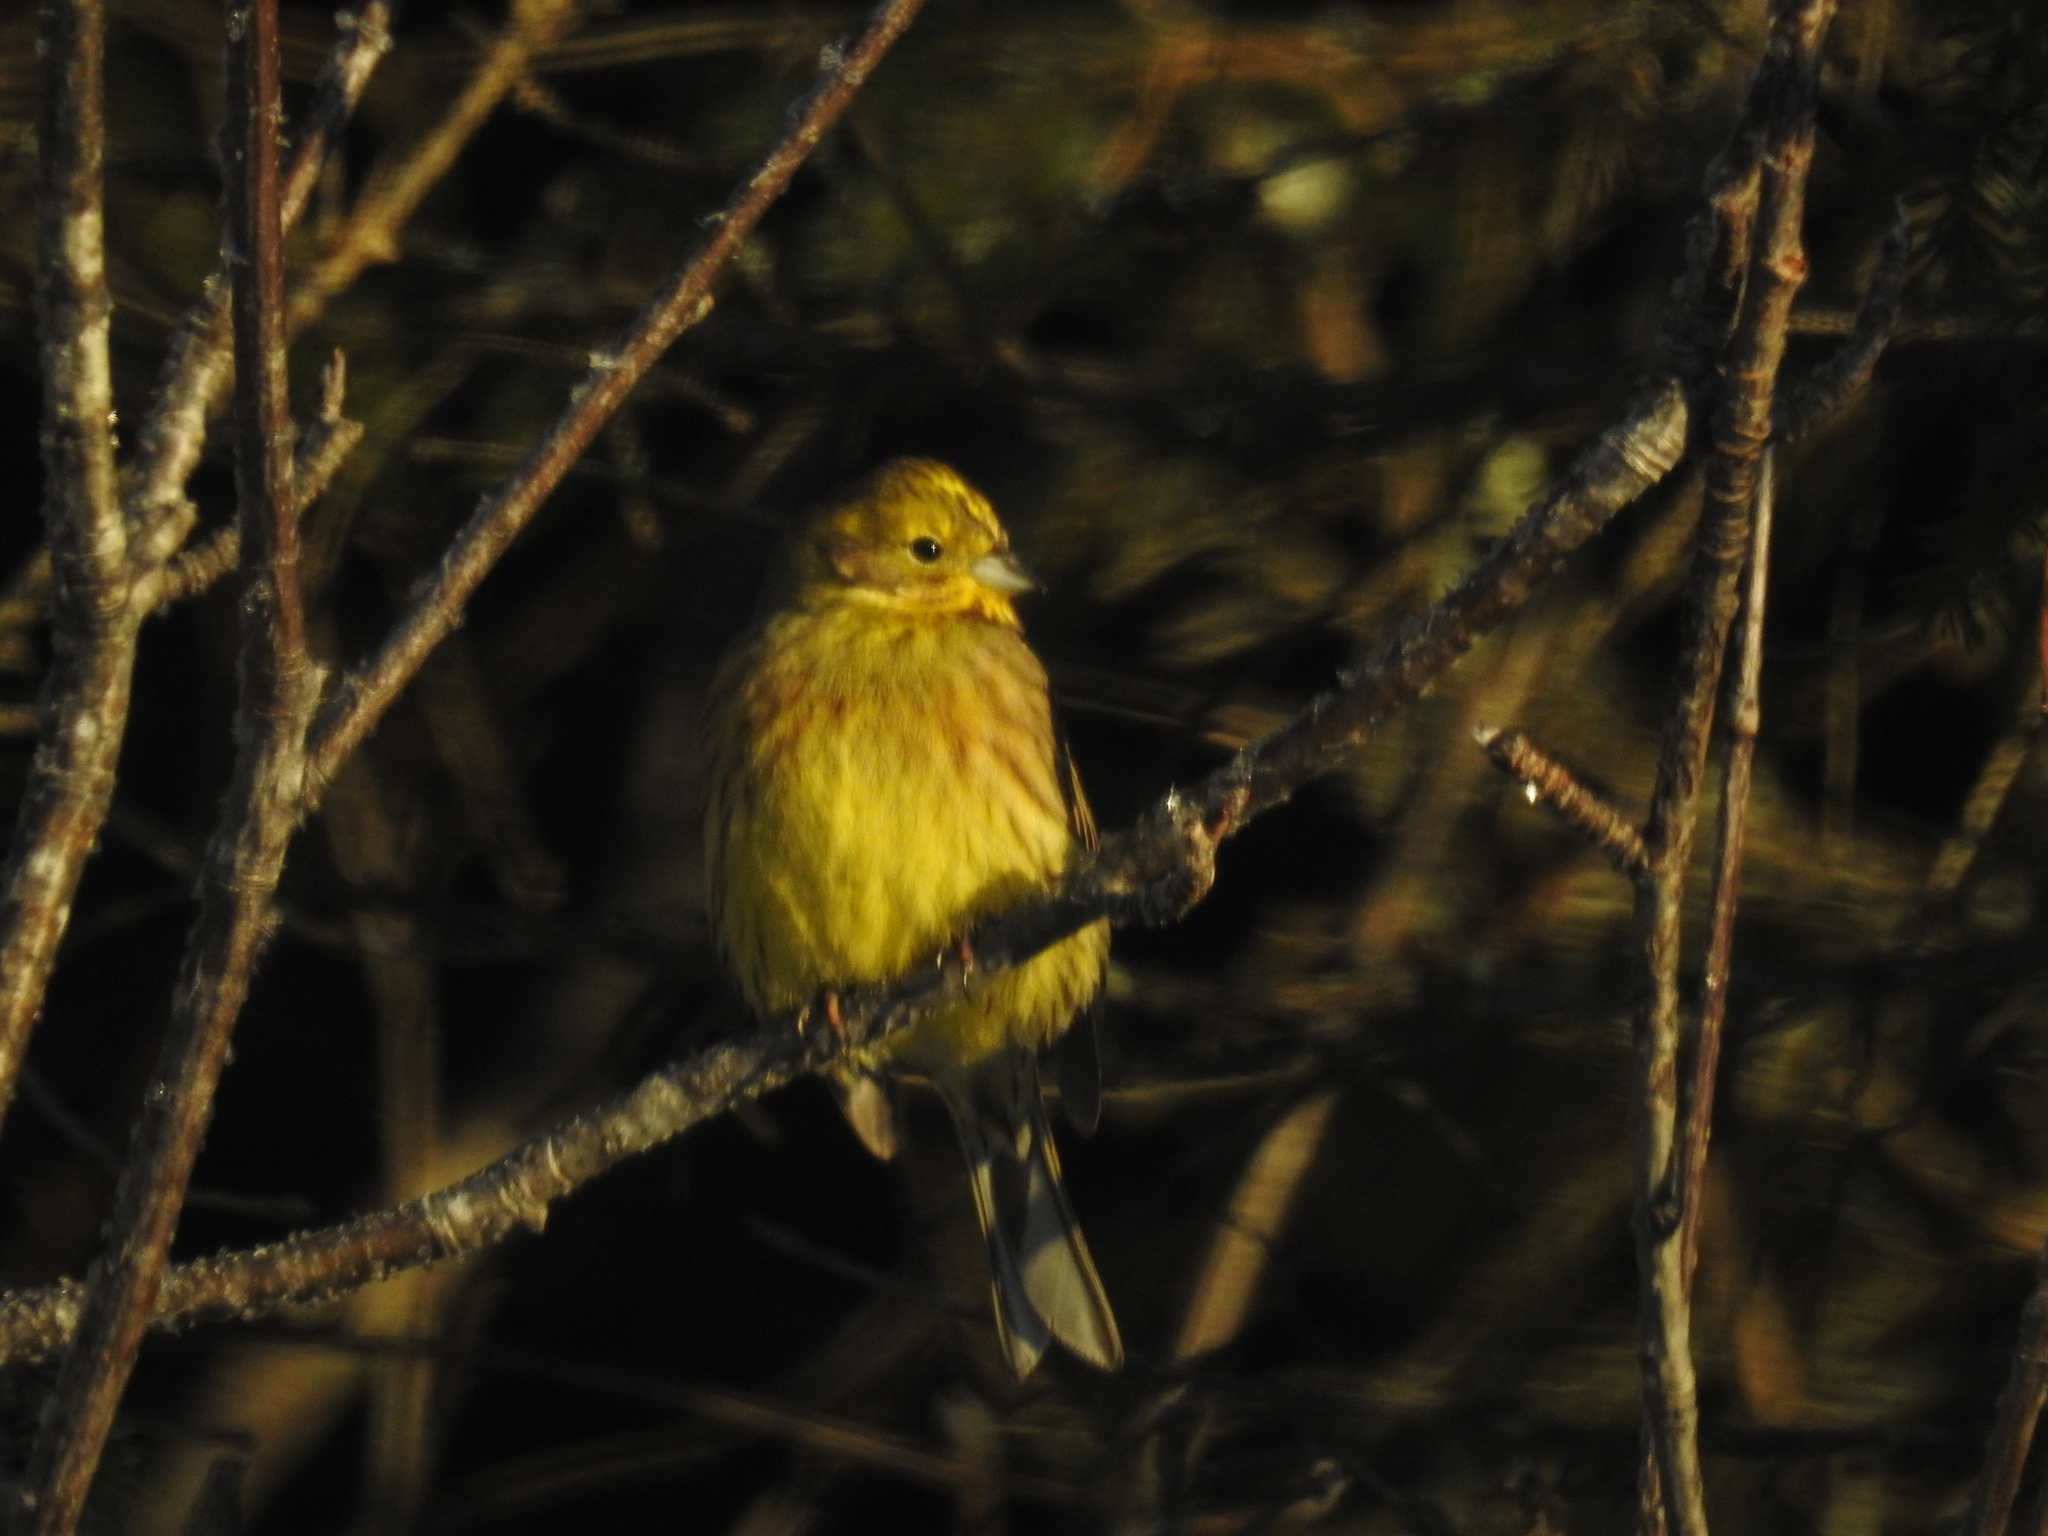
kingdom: Animalia
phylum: Chordata
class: Aves
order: Passeriformes
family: Emberizidae
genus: Emberiza
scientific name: Emberiza citrinella
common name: Yellowhammer
